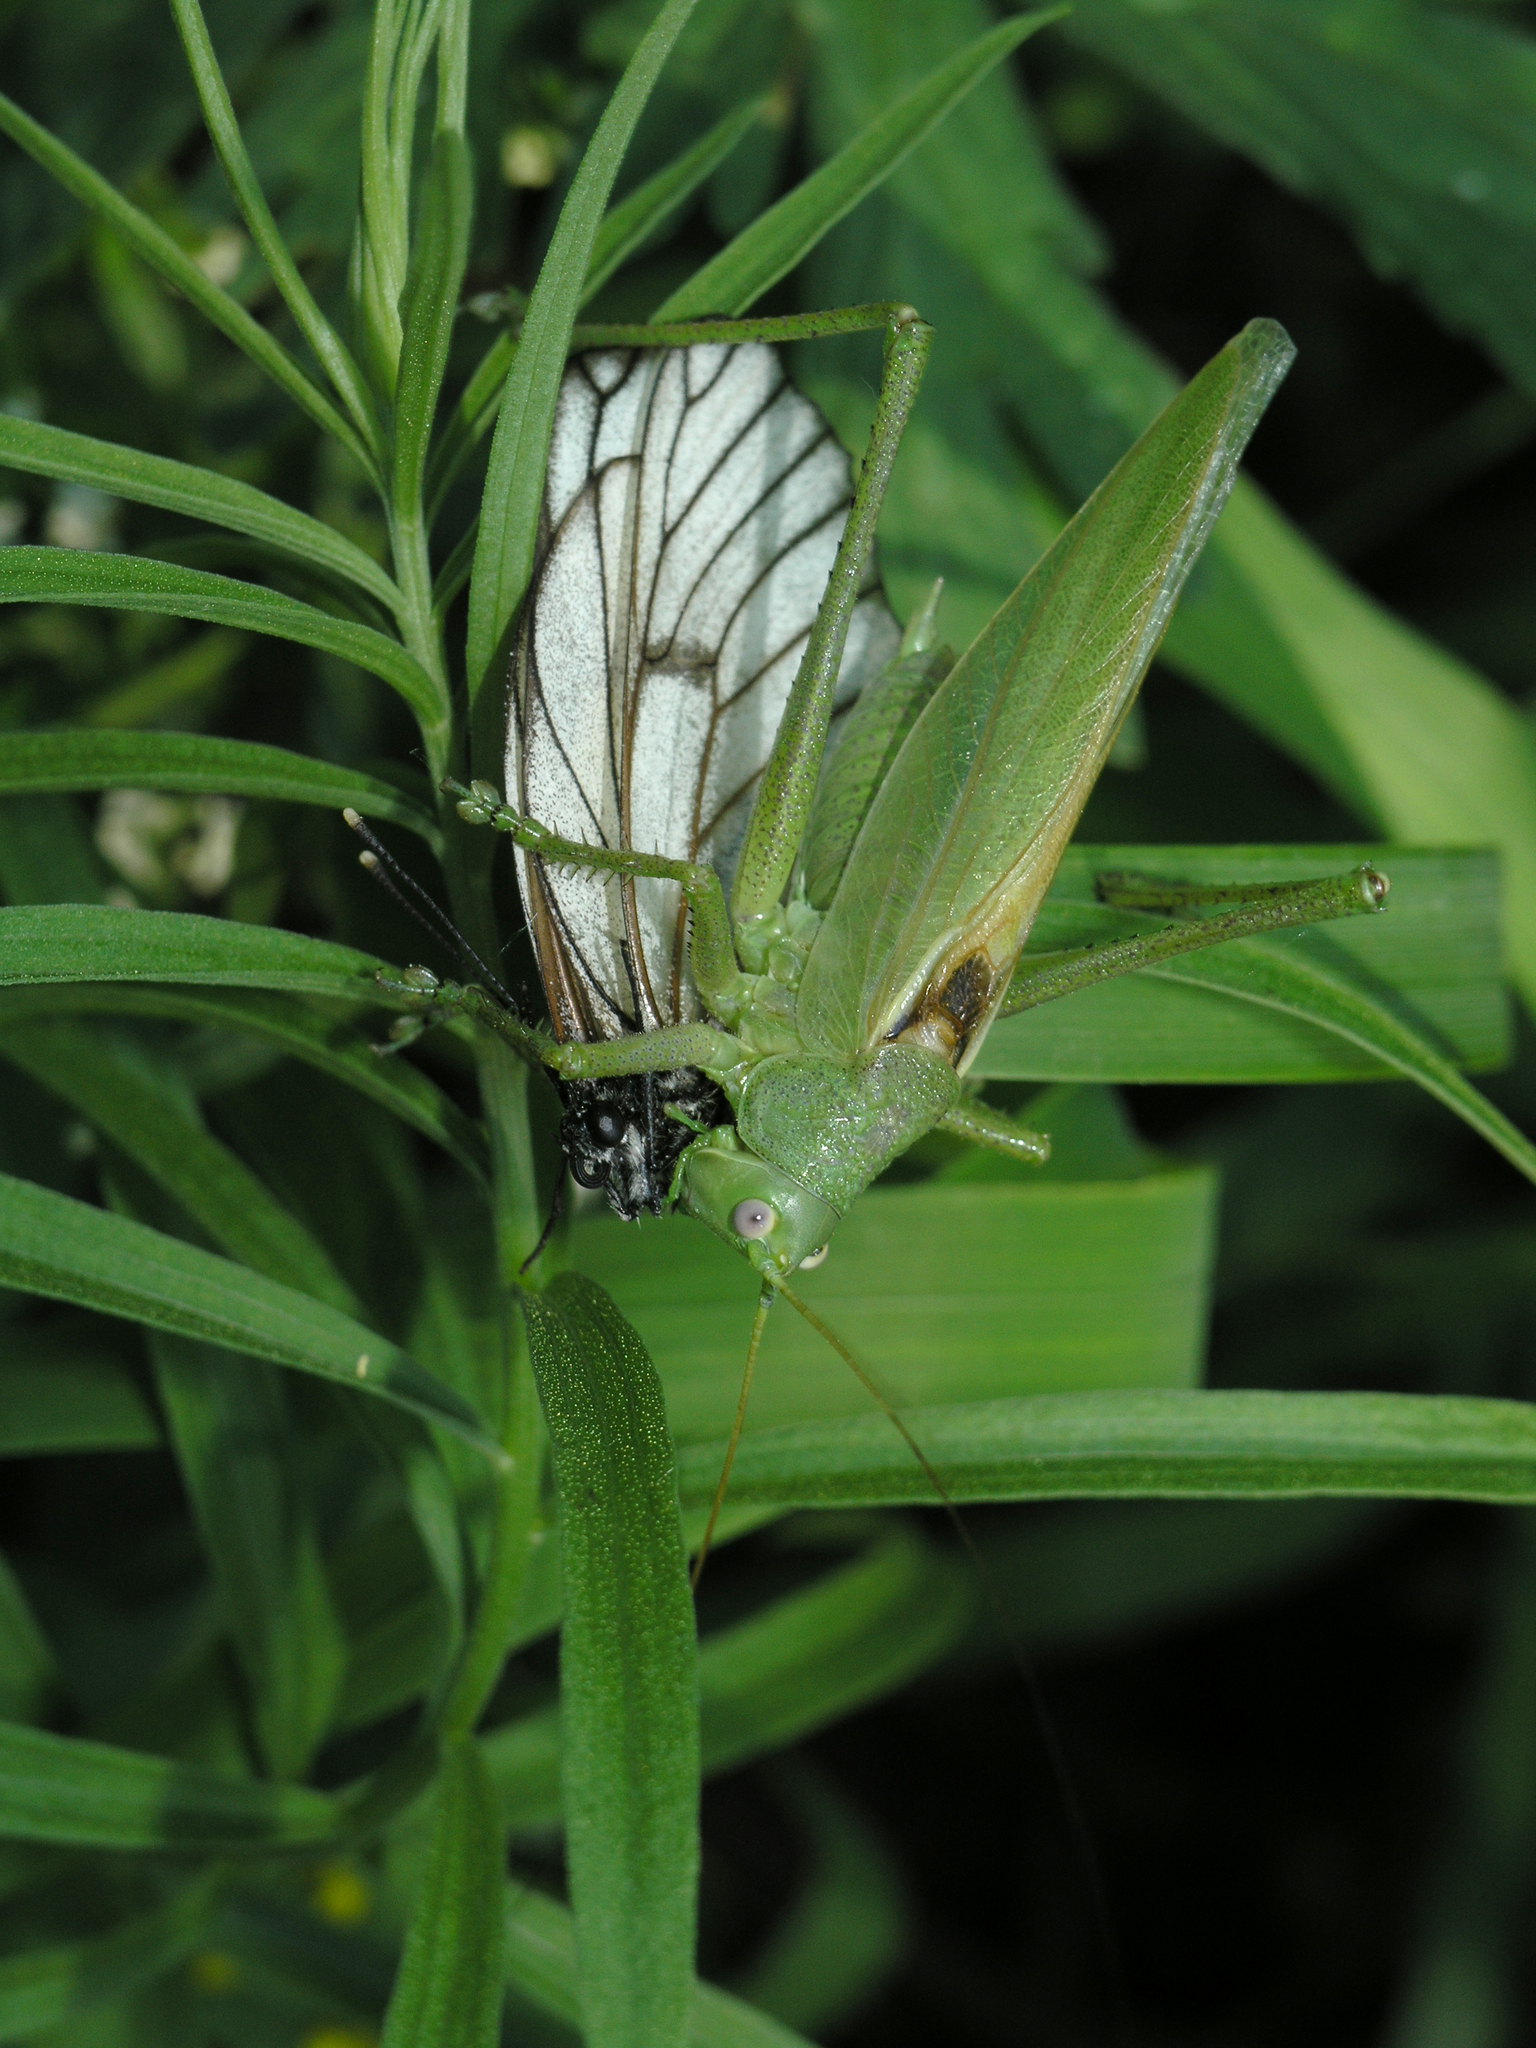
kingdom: Animalia
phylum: Arthropoda
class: Insecta
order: Lepidoptera
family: Pieridae
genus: Aporia
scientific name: Aporia crataegi
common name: Black-veined white
